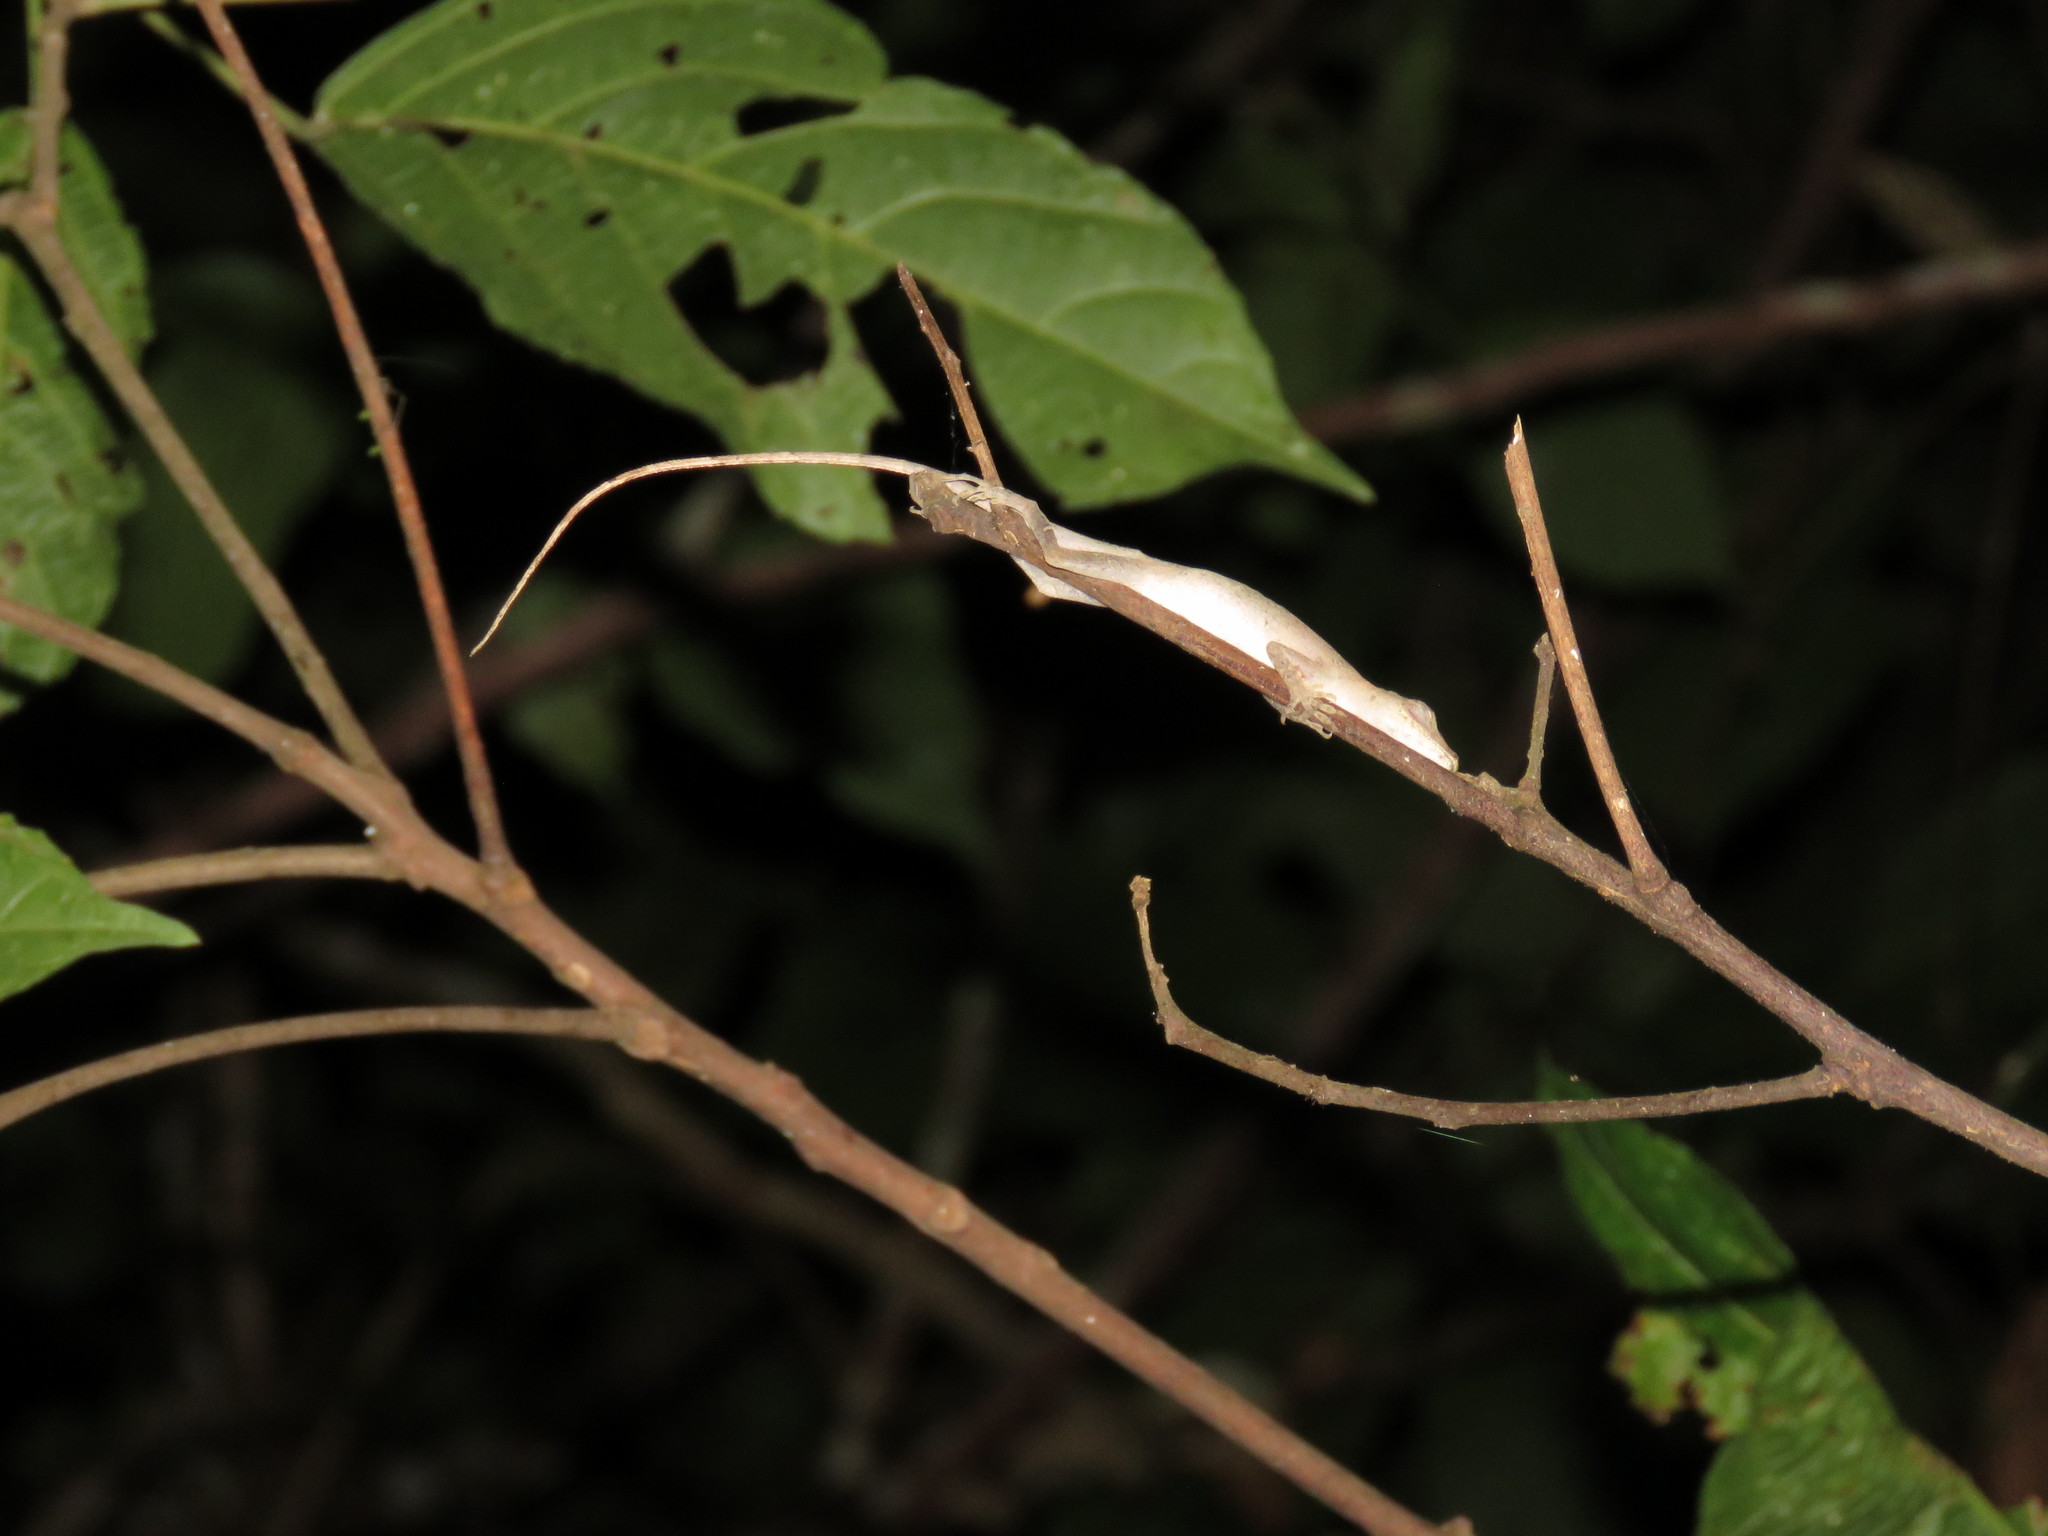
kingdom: Animalia
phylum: Chordata
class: Squamata
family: Dactyloidae
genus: Anolis
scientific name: Anolis fuscoauratus
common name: Brown-eared anole
